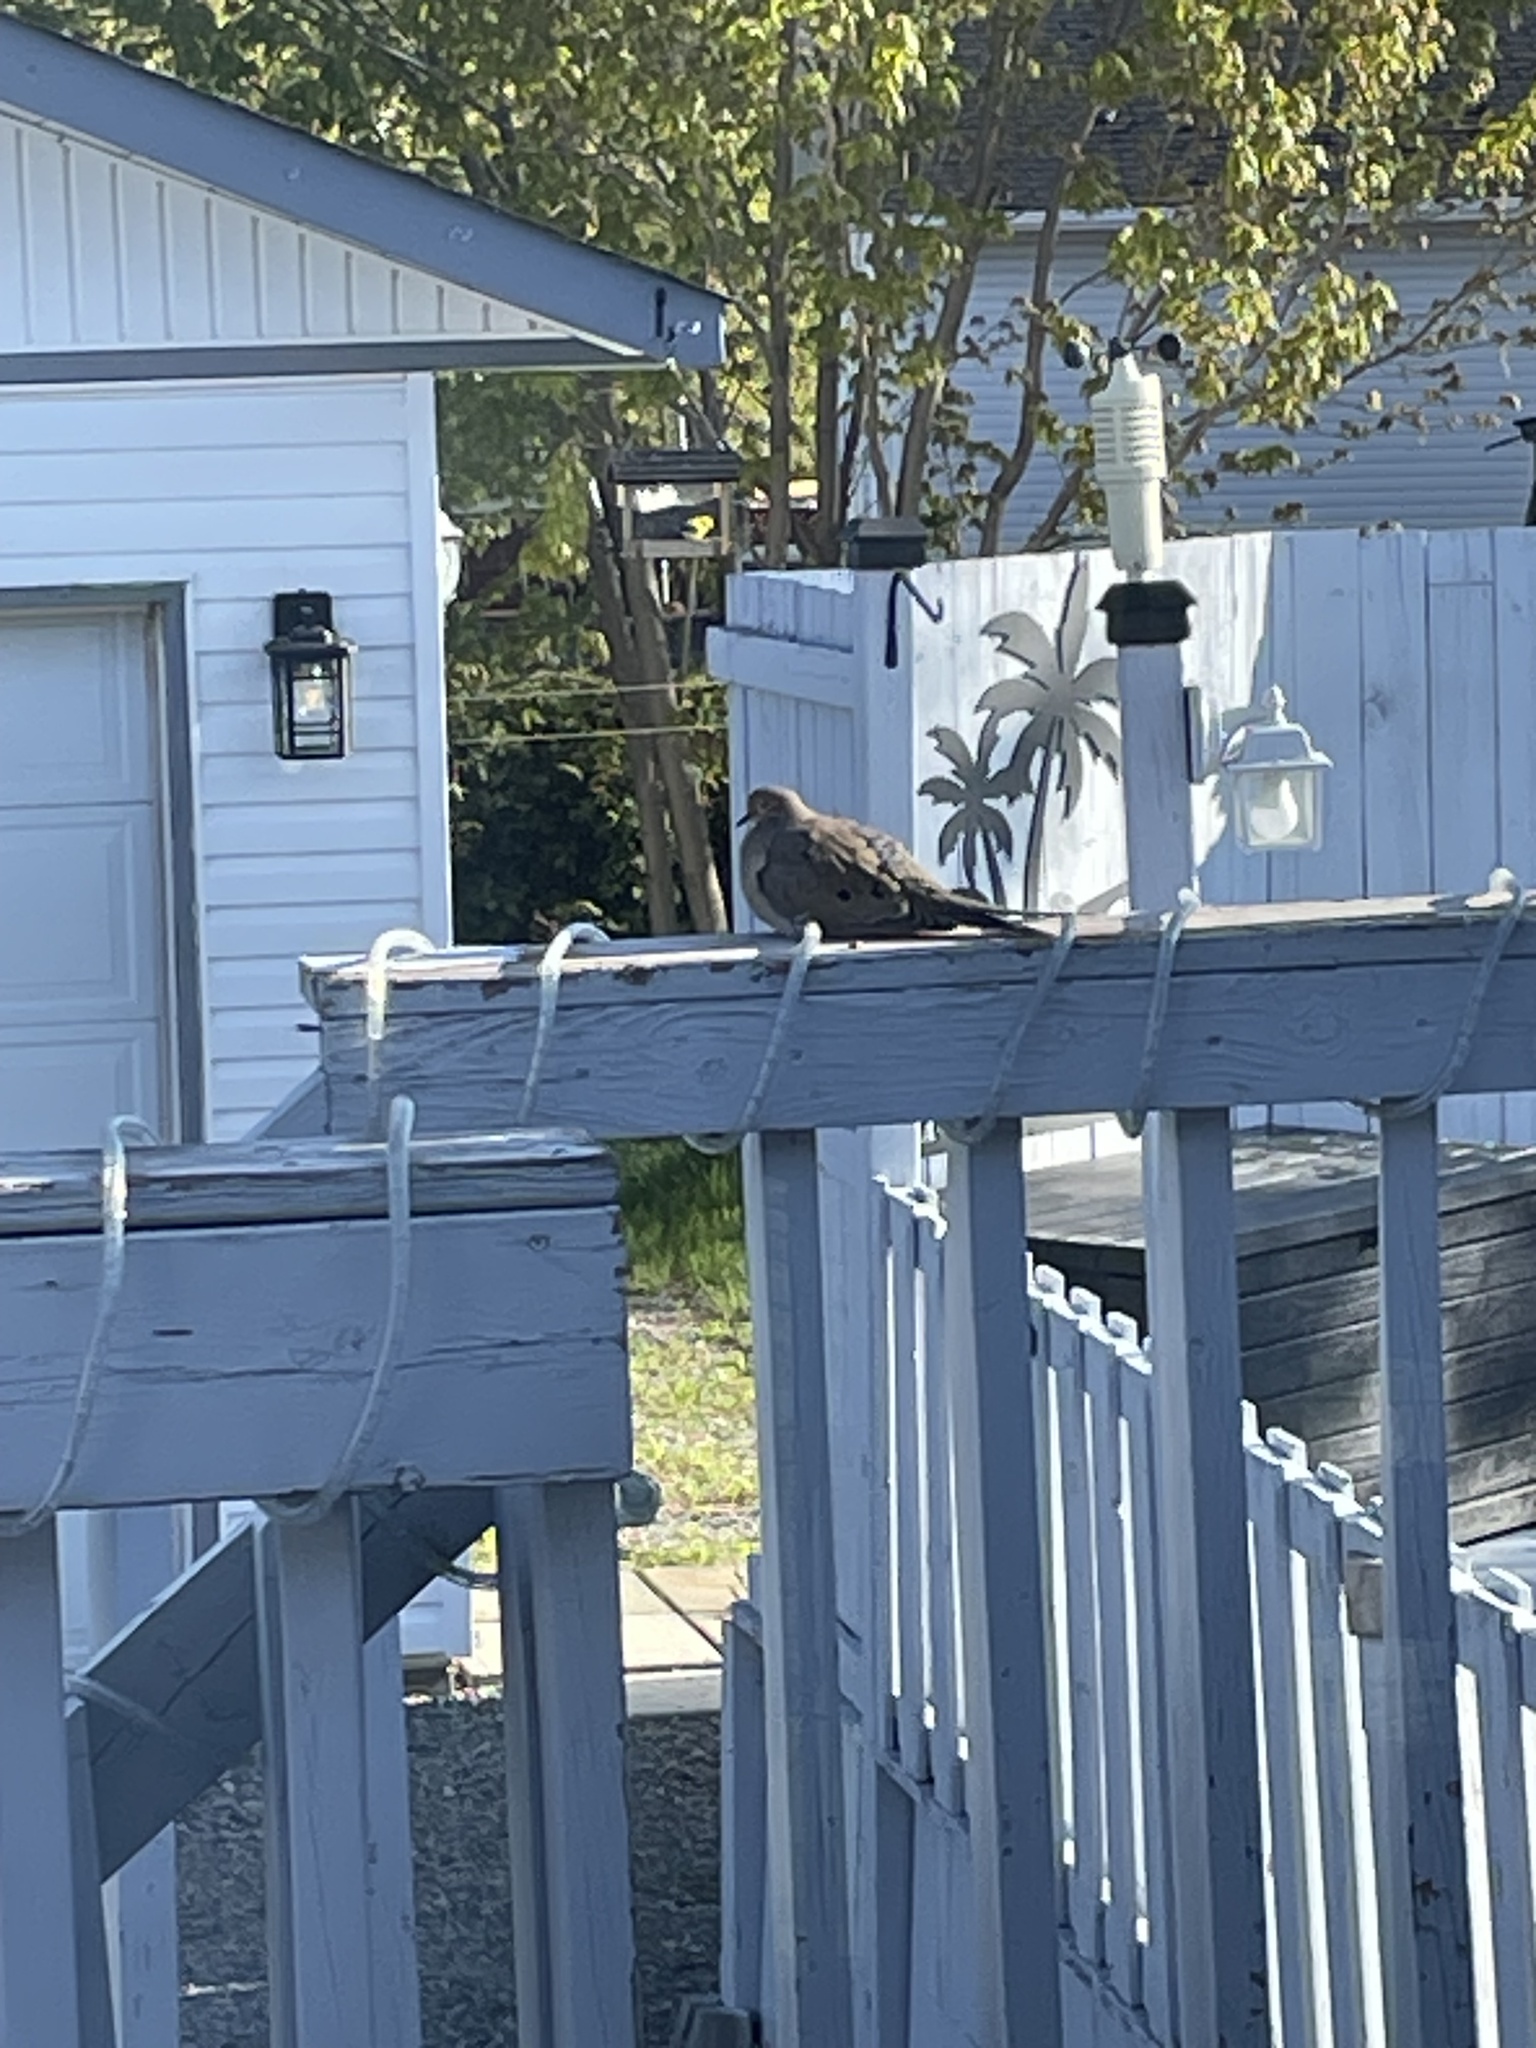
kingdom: Animalia
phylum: Chordata
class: Aves
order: Columbiformes
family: Columbidae
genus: Zenaida
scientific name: Zenaida macroura
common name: Mourning dove
